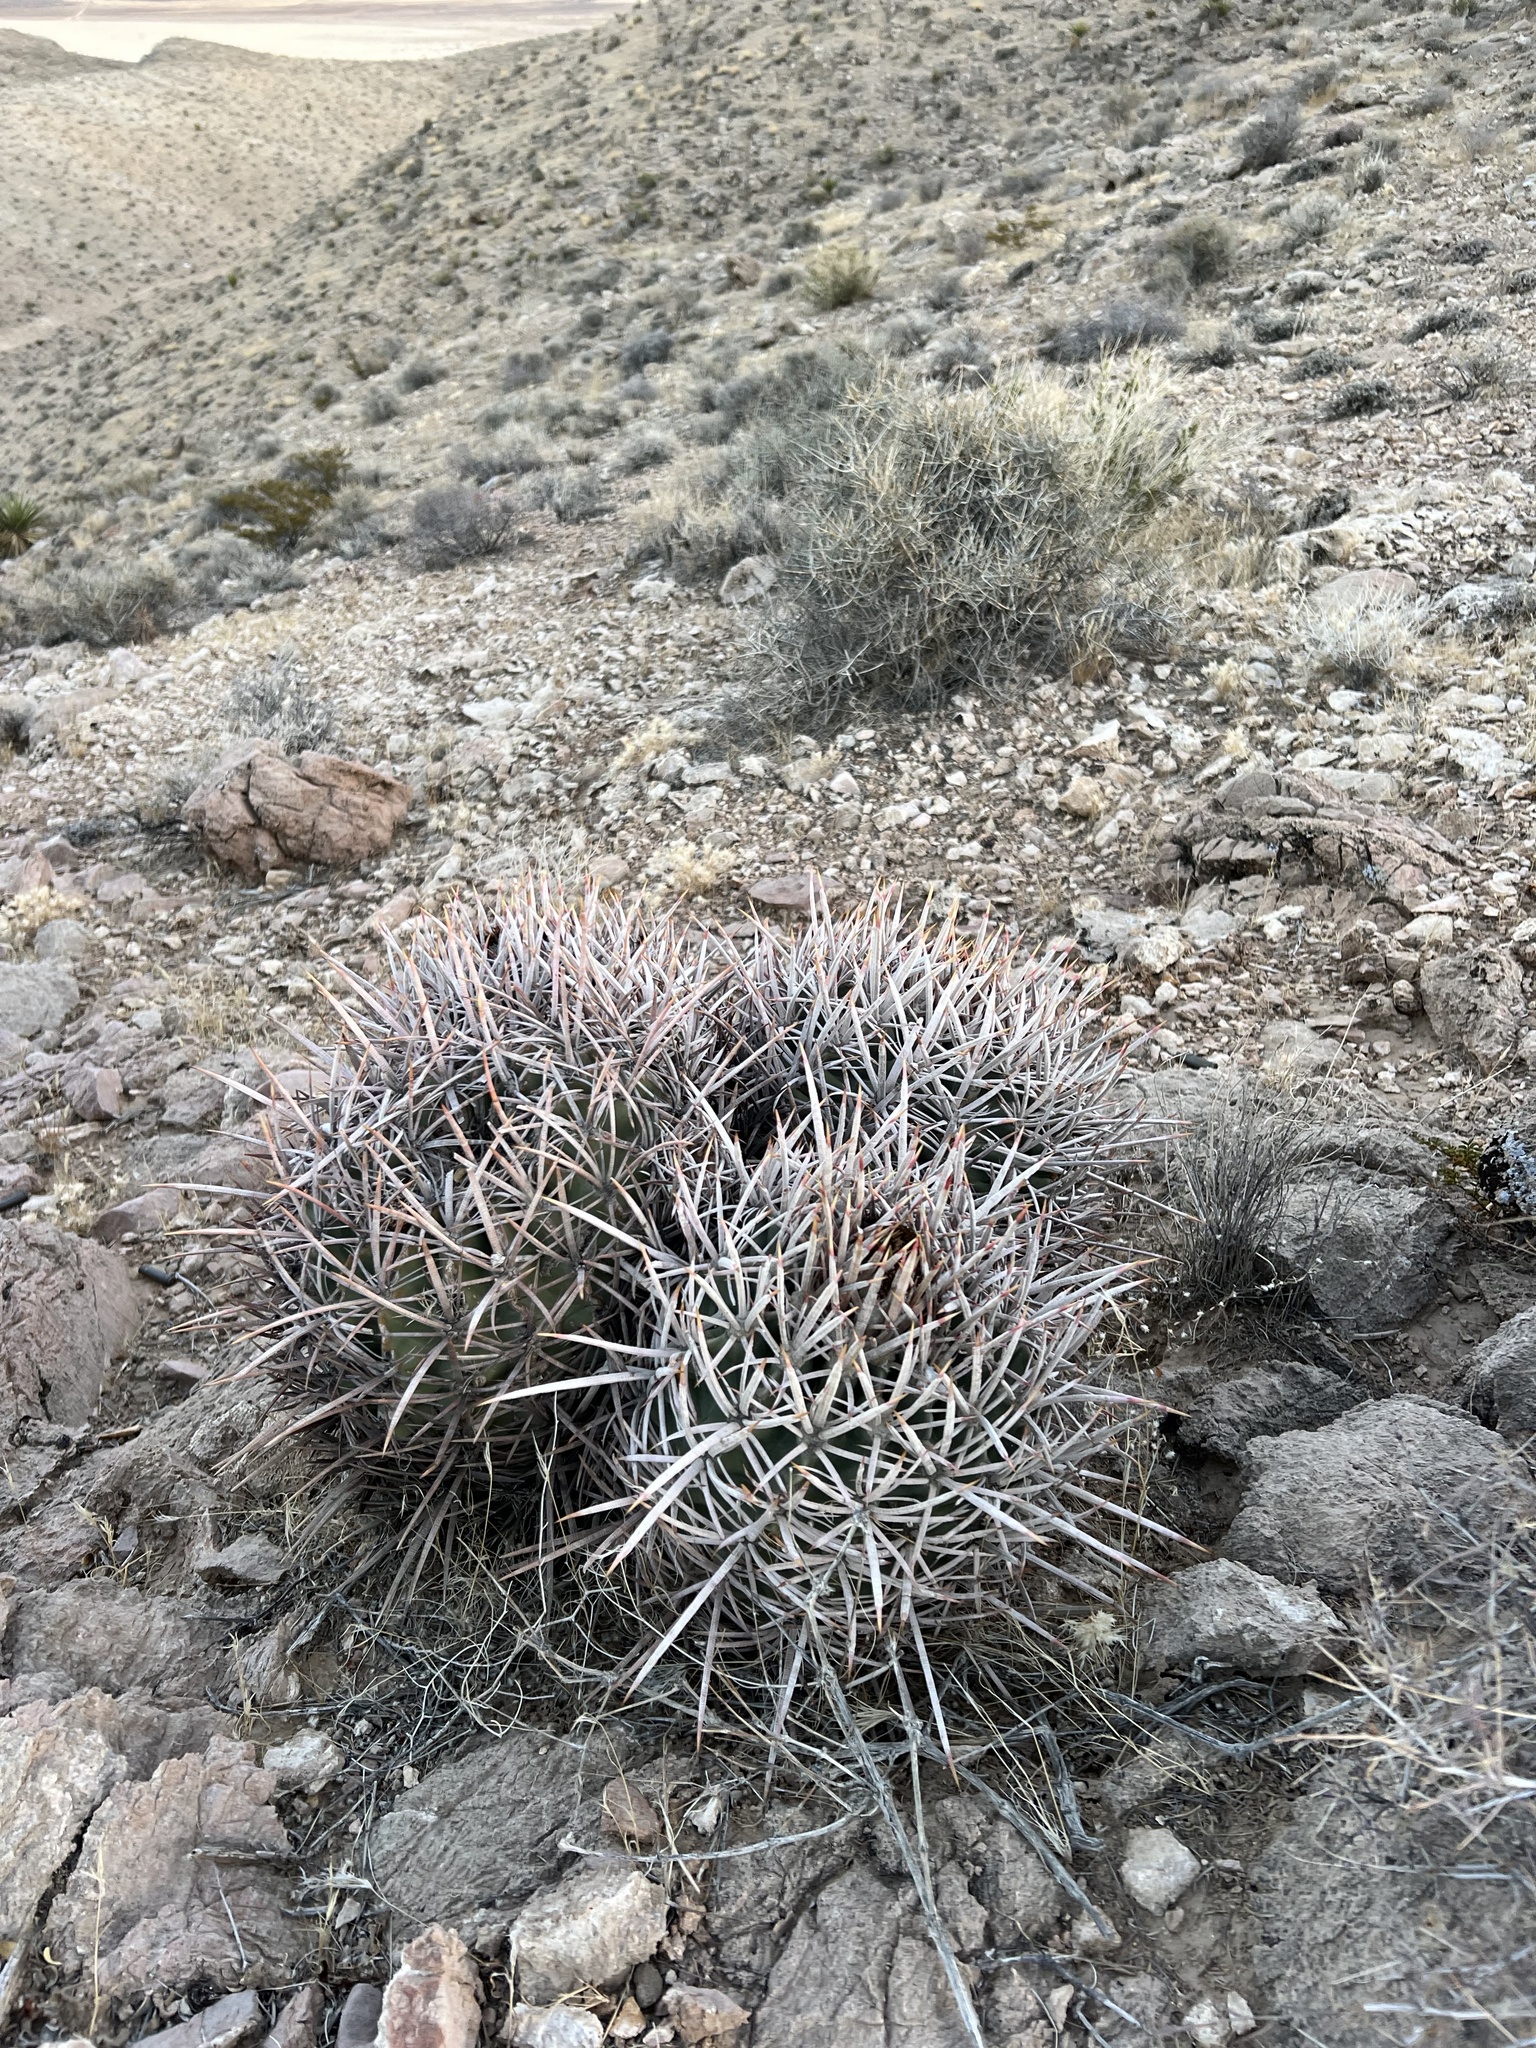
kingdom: Plantae
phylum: Tracheophyta
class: Magnoliopsida
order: Caryophyllales
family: Cactaceae
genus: Echinocactus
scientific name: Echinocactus polycephalus
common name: Cottontop cactus
